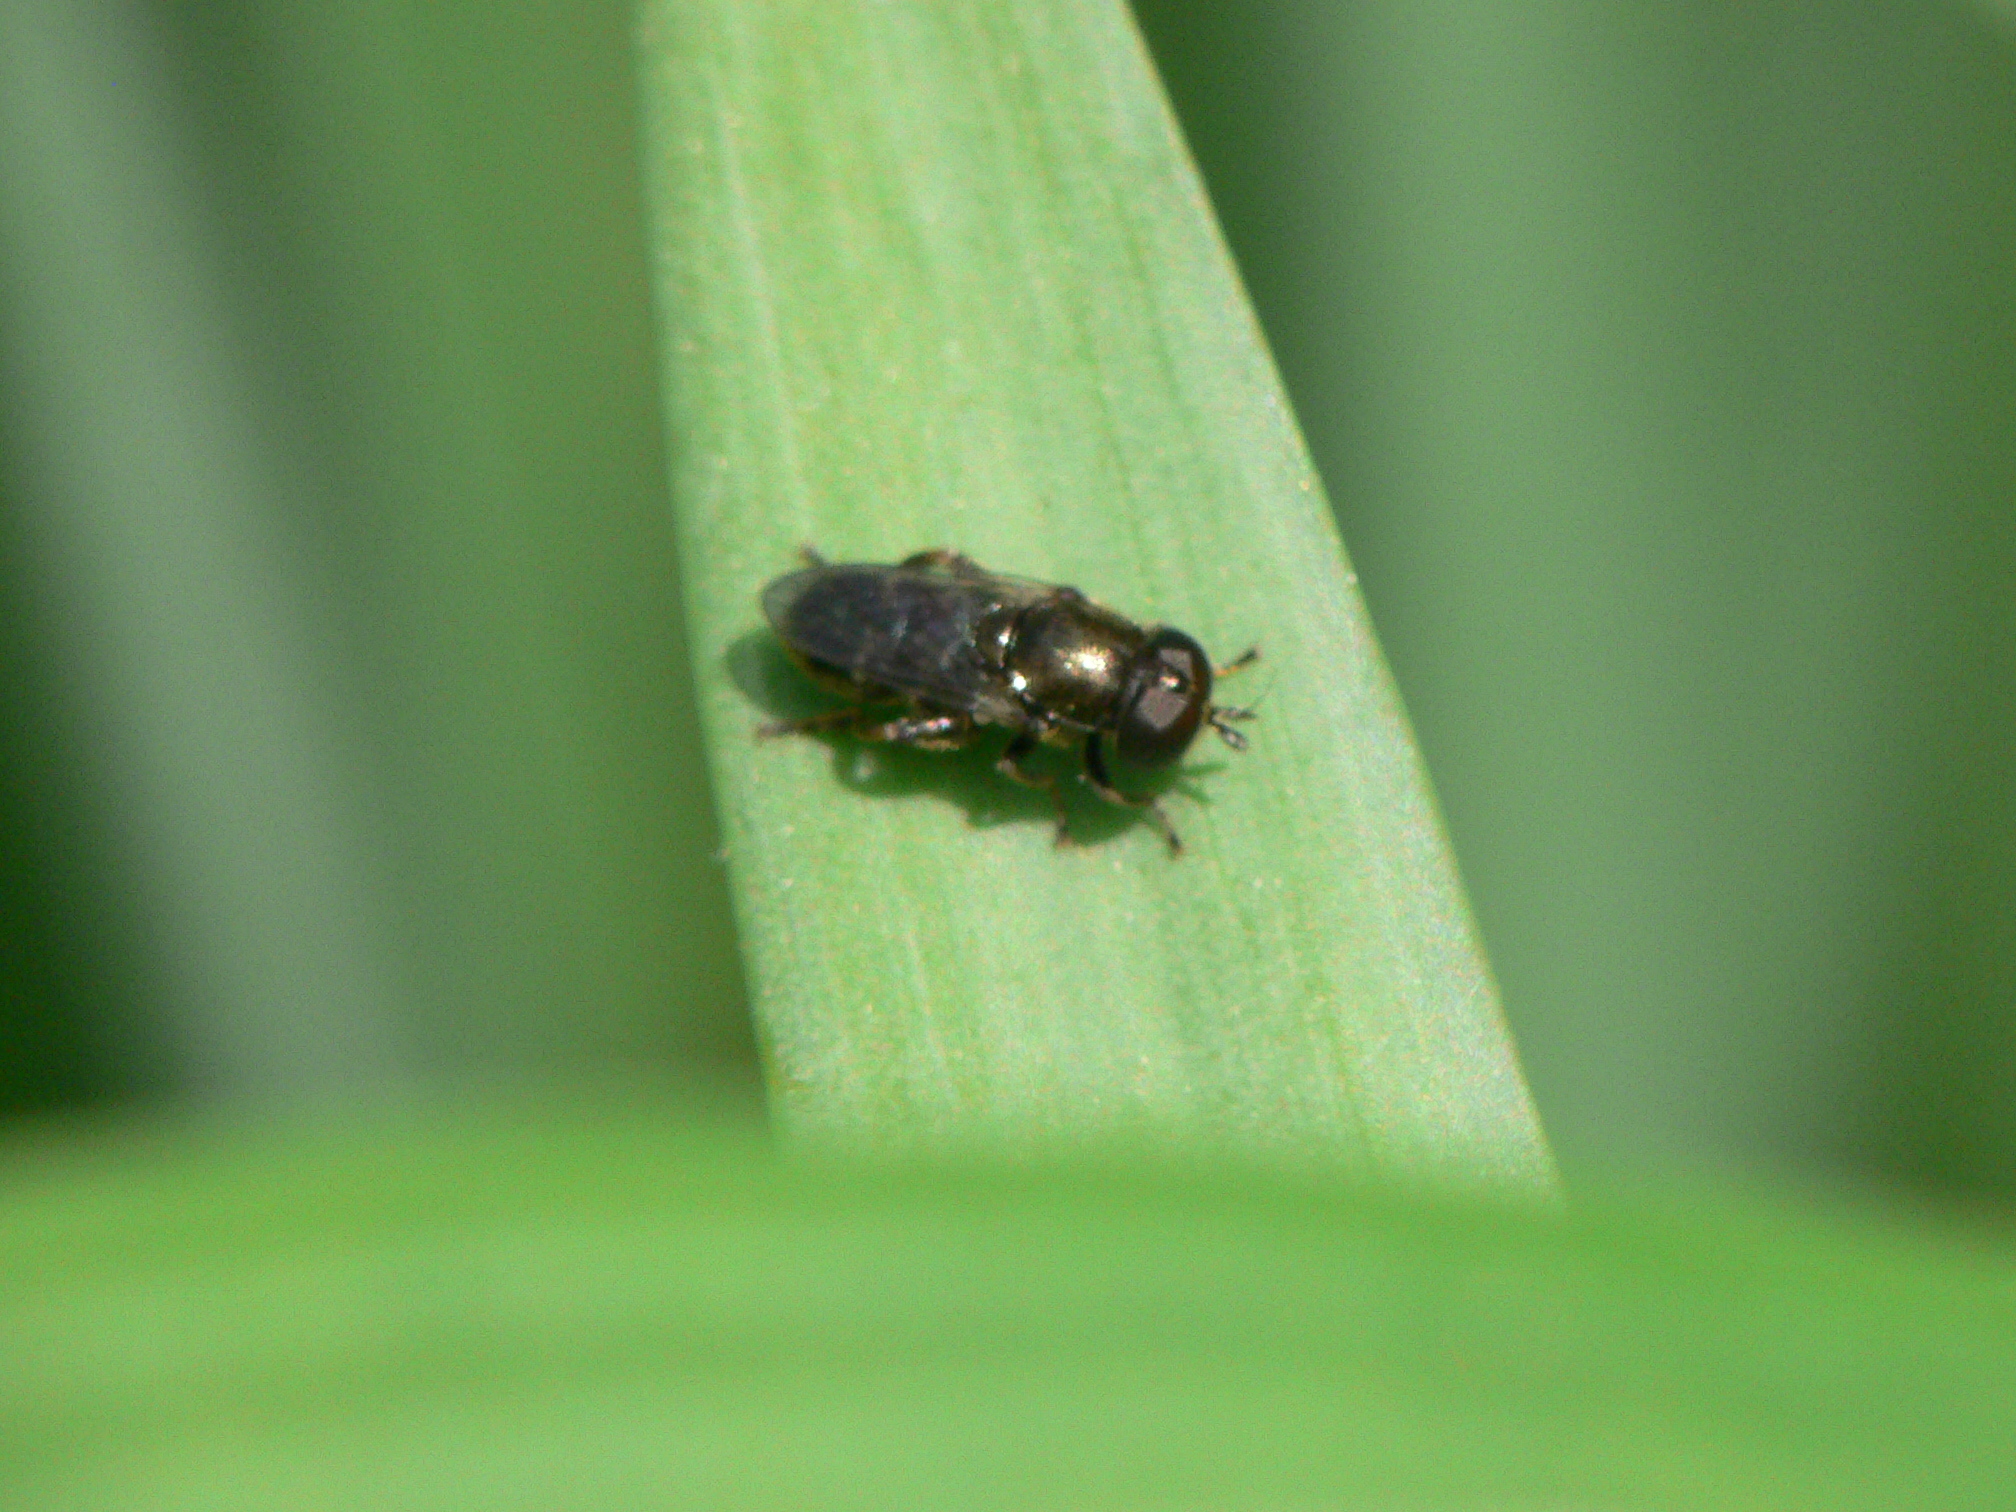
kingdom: Animalia
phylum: Arthropoda
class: Insecta
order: Diptera
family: Syrphidae
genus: Eumerus
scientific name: Eumerus
